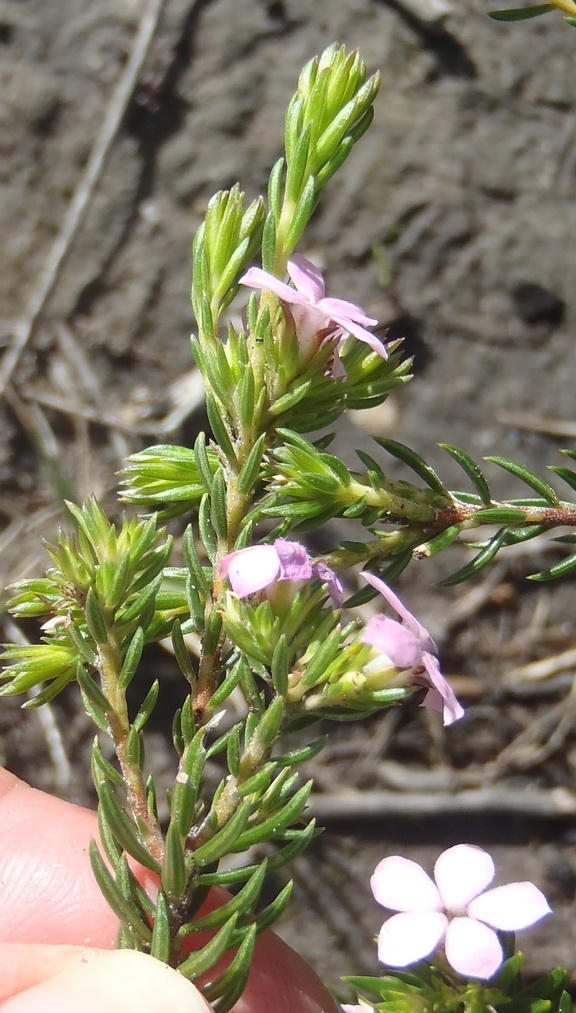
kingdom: Plantae
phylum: Tracheophyta
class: Magnoliopsida
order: Sapindales
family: Rutaceae
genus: Acmadenia
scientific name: Acmadenia alternifolia
